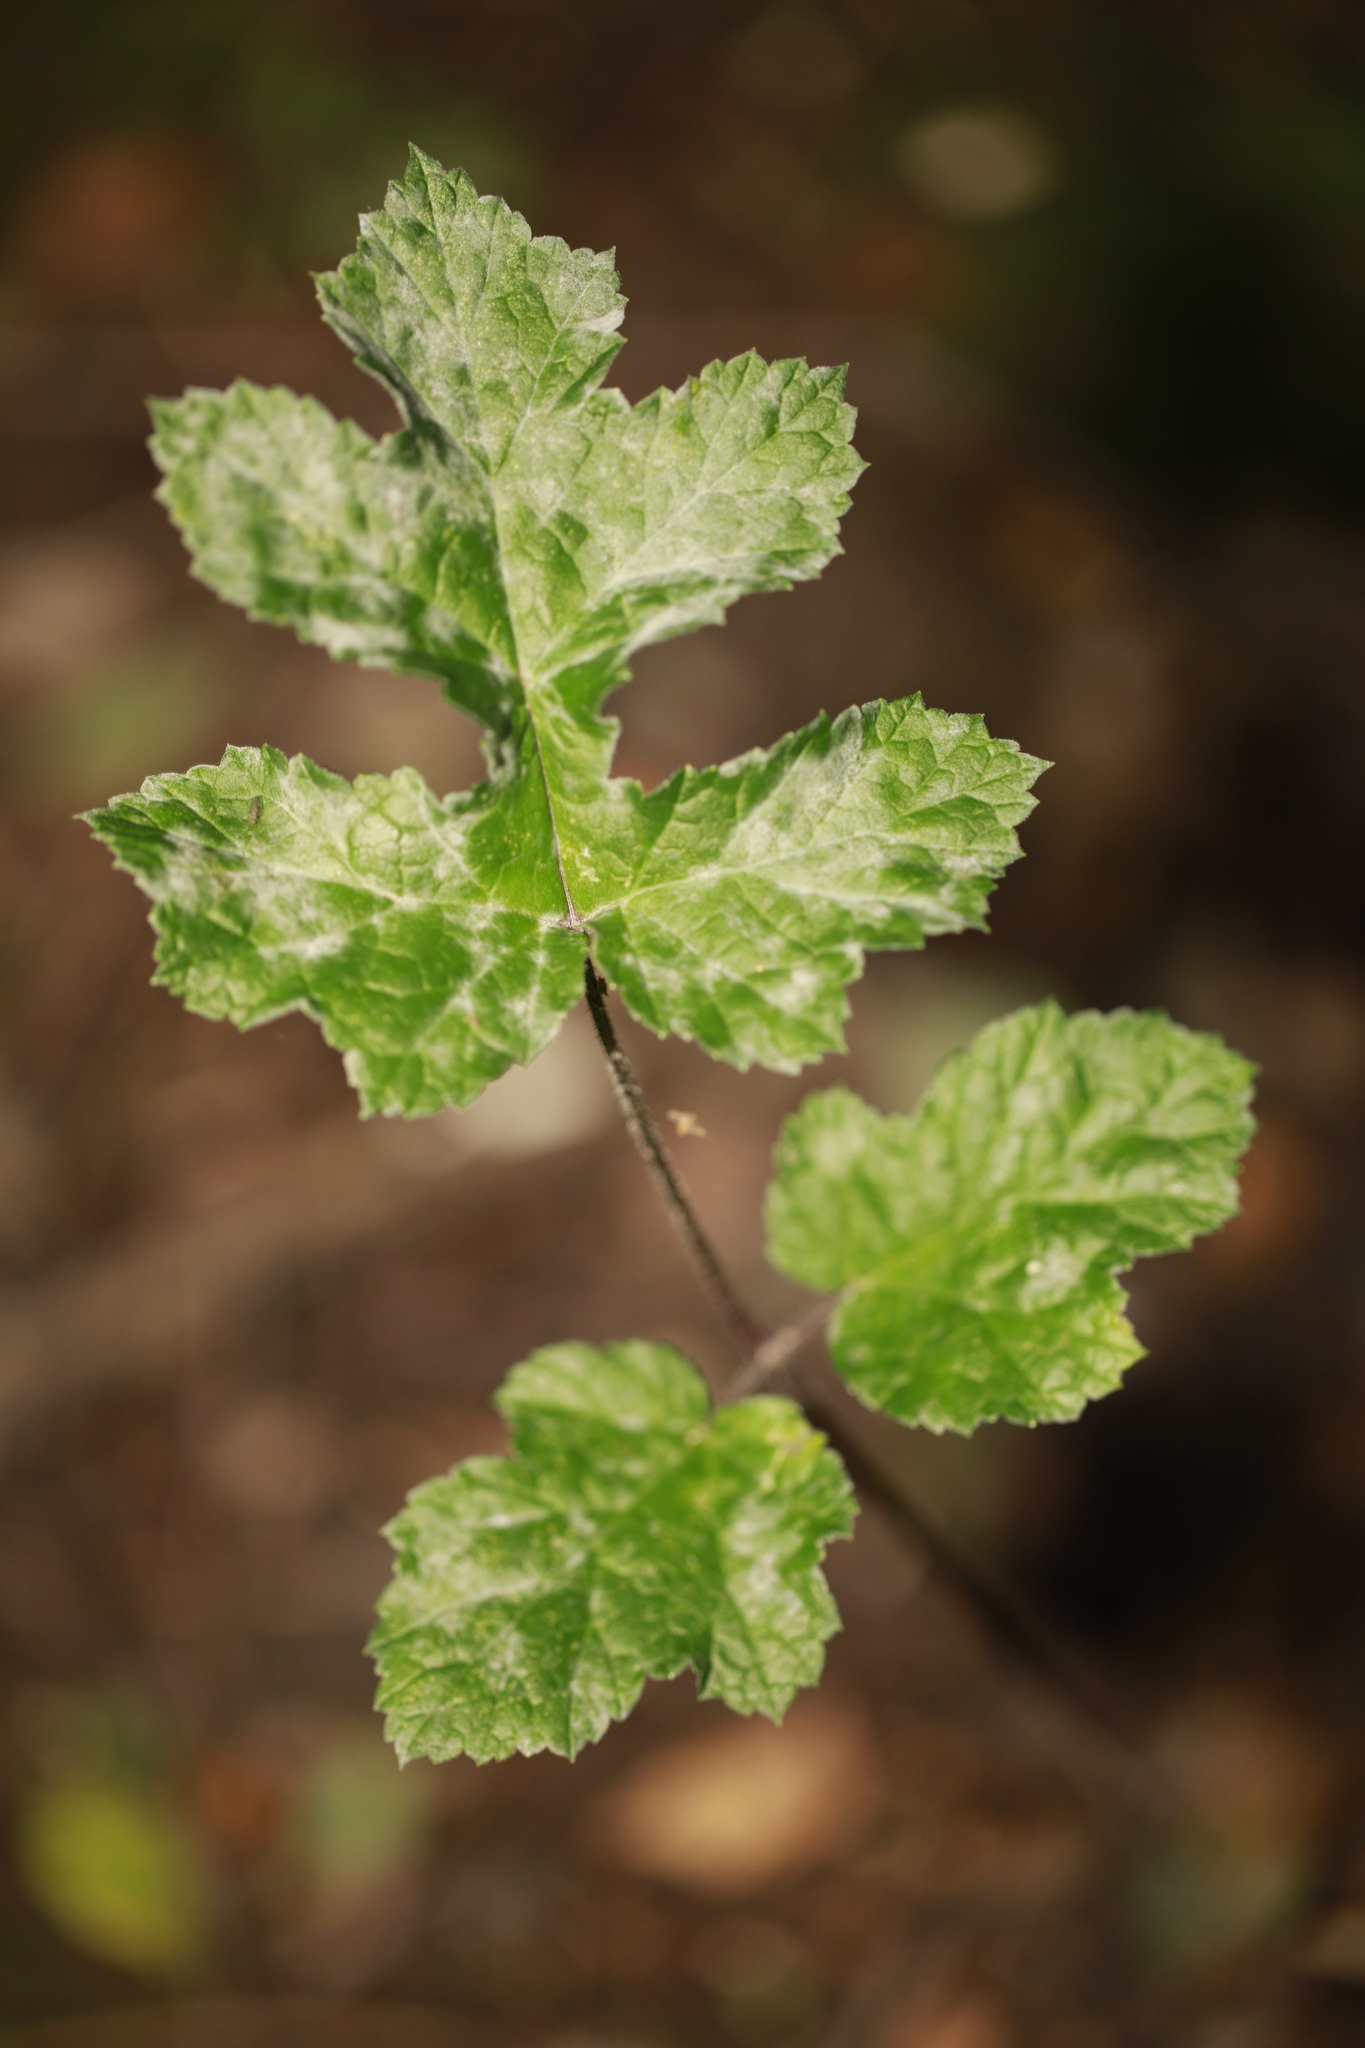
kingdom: Plantae
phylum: Tracheophyta
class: Magnoliopsida
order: Apiales
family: Apiaceae
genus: Heracleum
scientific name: Heracleum sphondylium
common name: Hogweed
